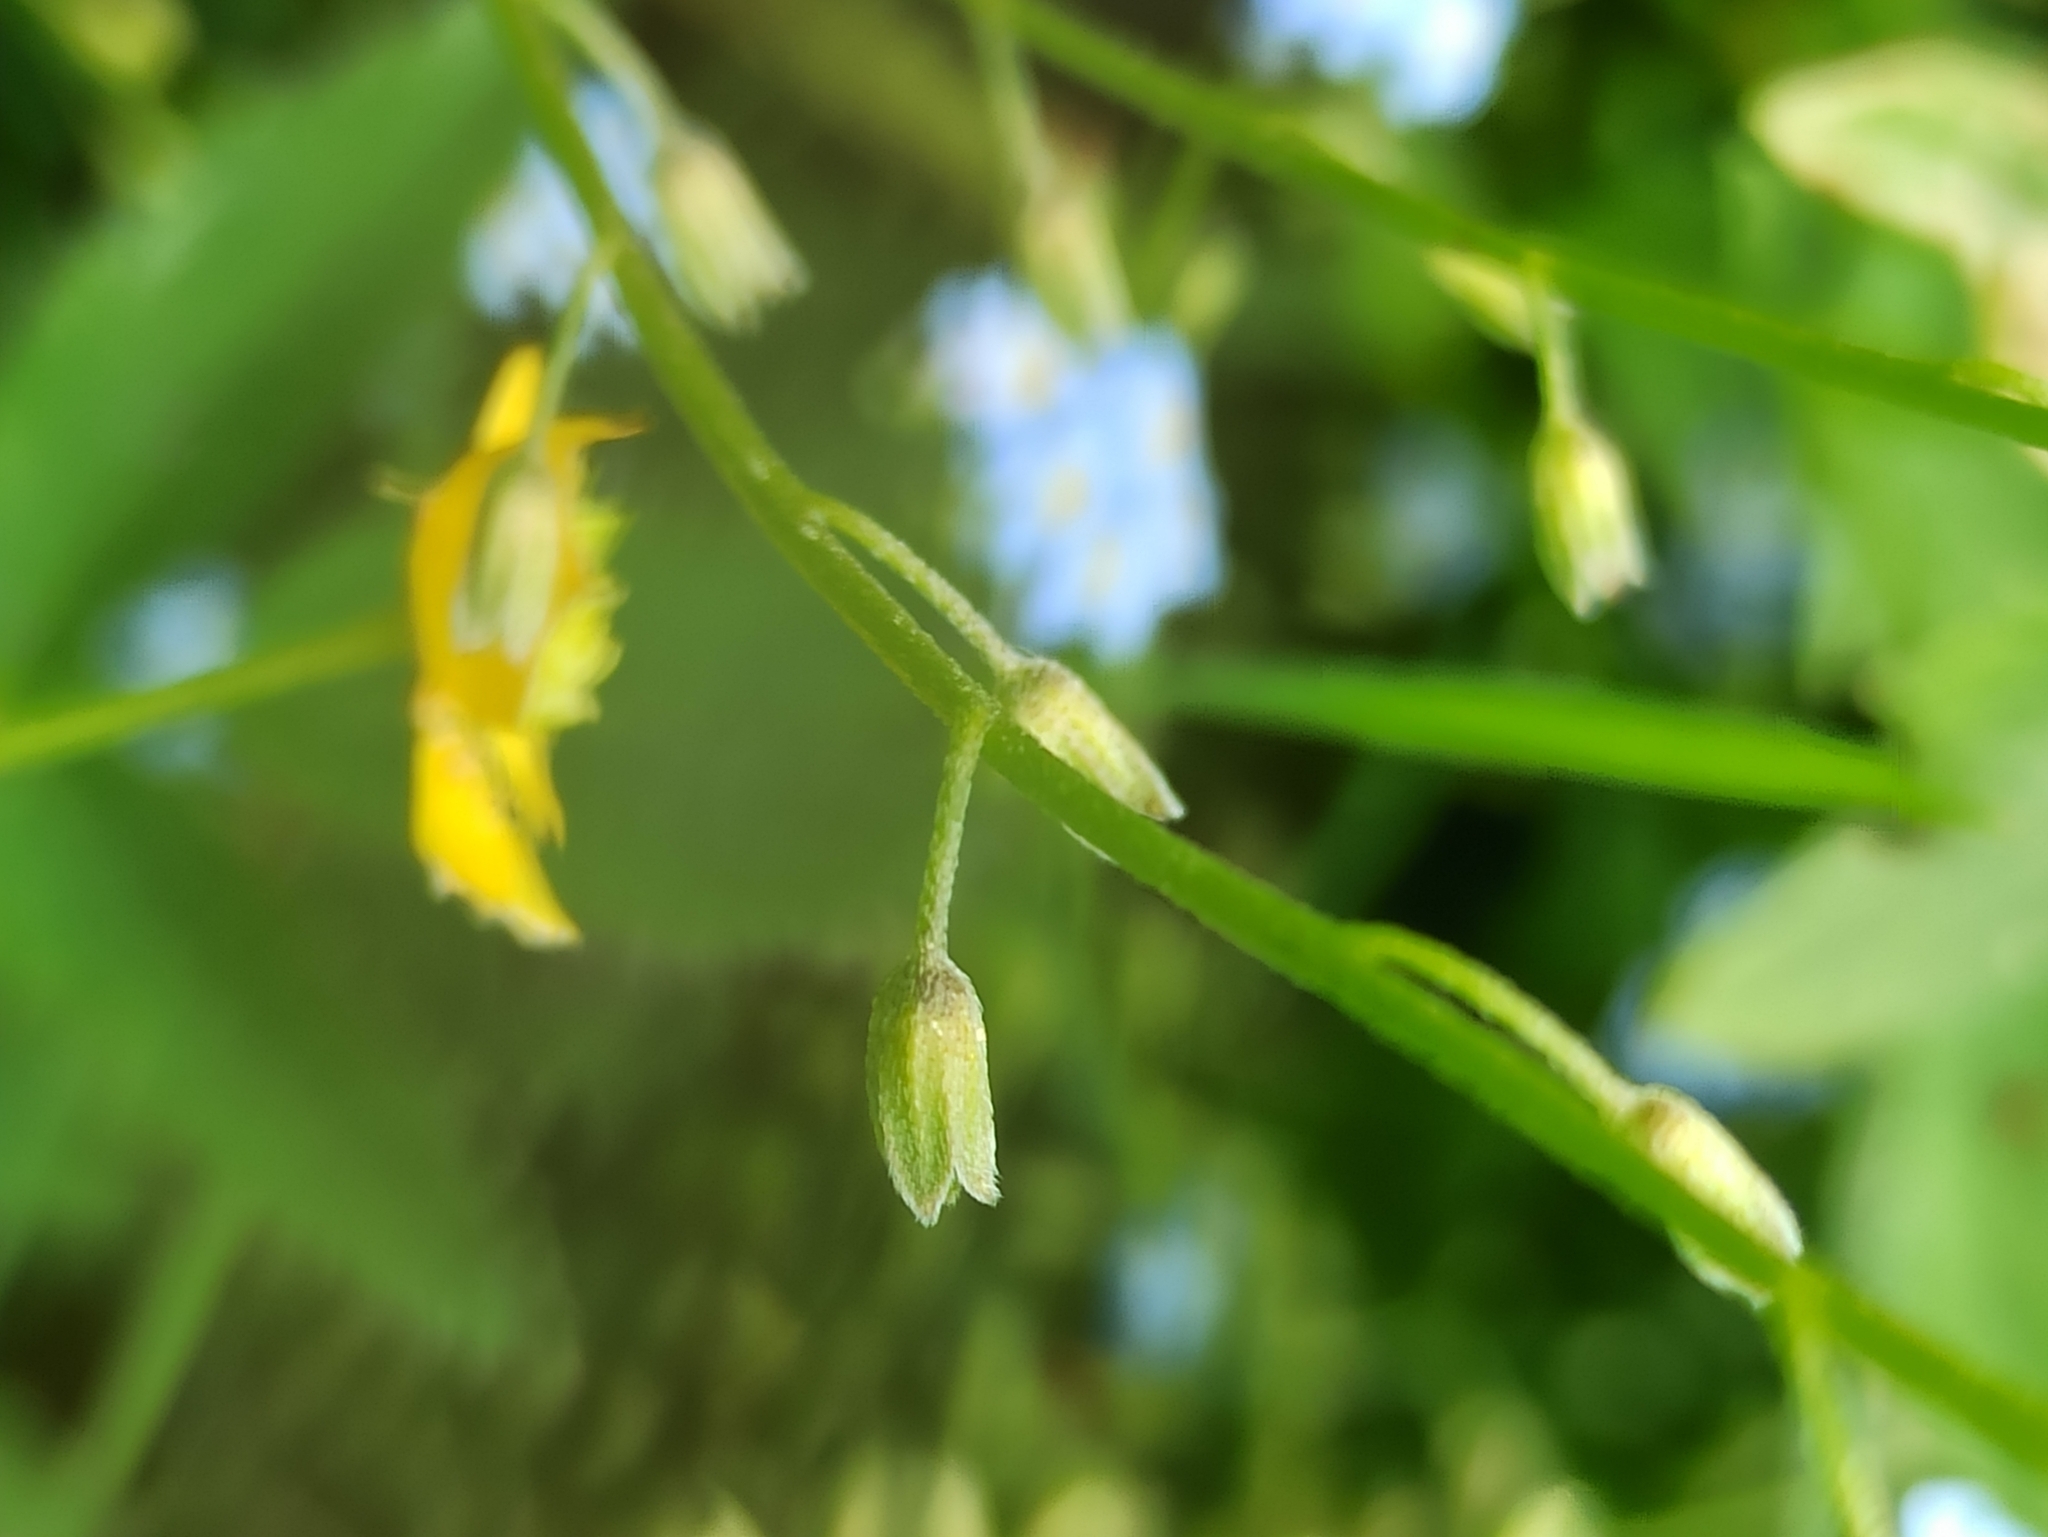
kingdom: Plantae
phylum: Tracheophyta
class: Magnoliopsida
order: Boraginales
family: Boraginaceae
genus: Myosotis
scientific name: Myosotis scorpioides
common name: Water forget-me-not
